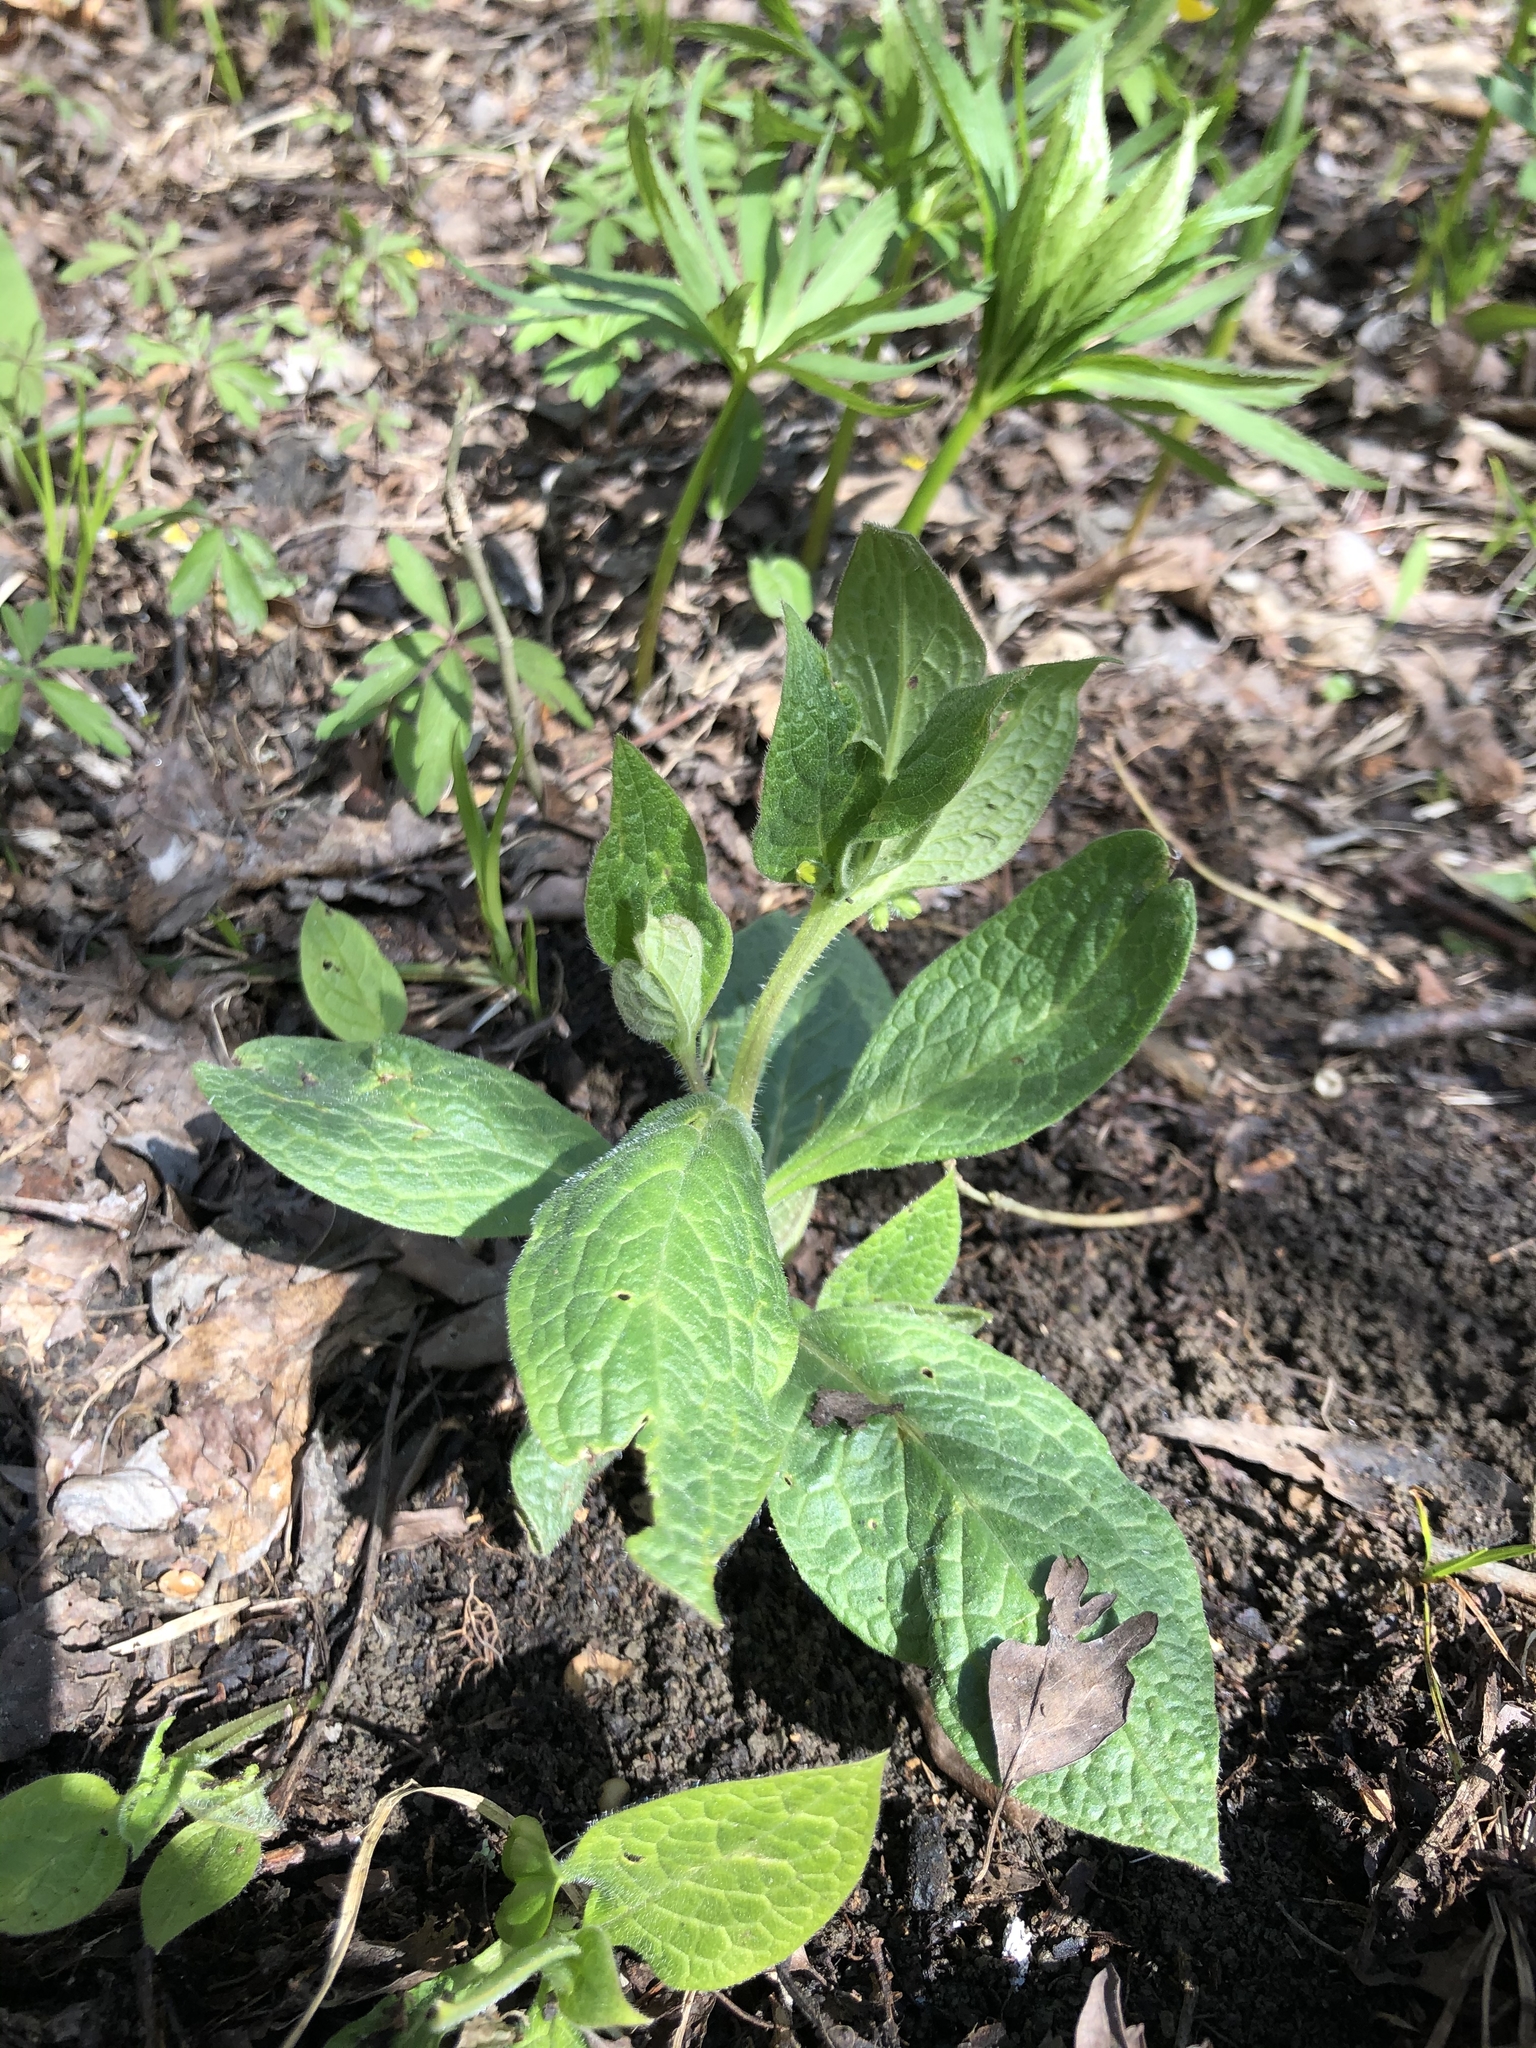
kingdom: Plantae
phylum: Tracheophyta
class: Magnoliopsida
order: Boraginales
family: Boraginaceae
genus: Symphytum
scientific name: Symphytum tuberosum
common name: Tuberous comfrey
